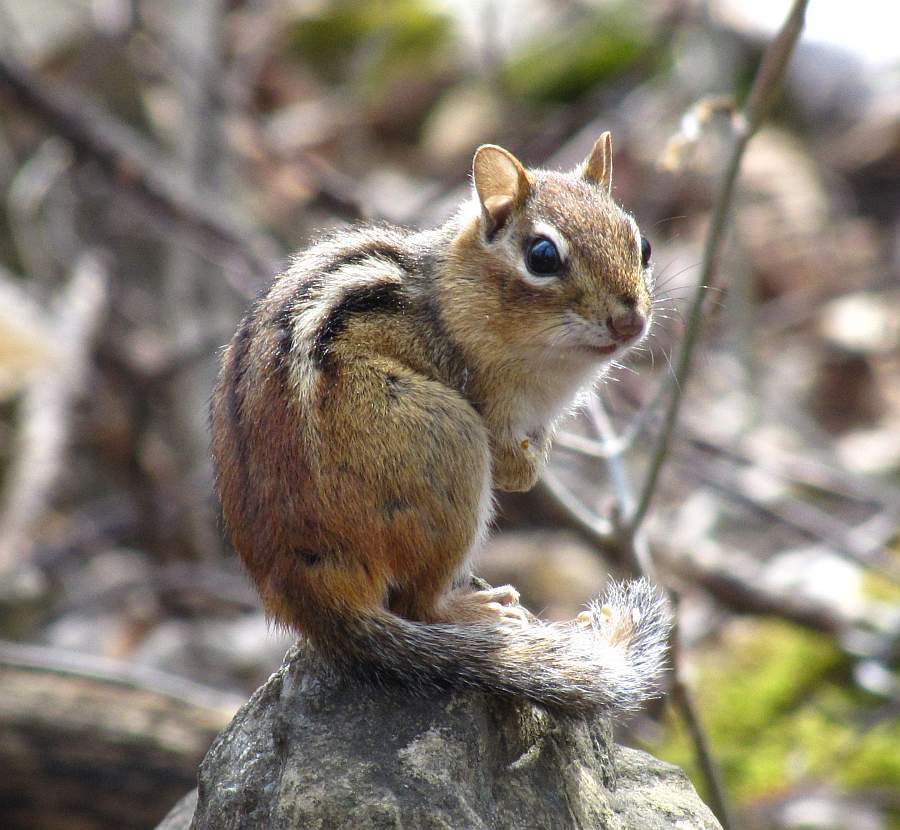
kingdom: Animalia
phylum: Chordata
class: Mammalia
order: Rodentia
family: Sciuridae
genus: Tamias
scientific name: Tamias striatus
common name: Eastern chipmunk
